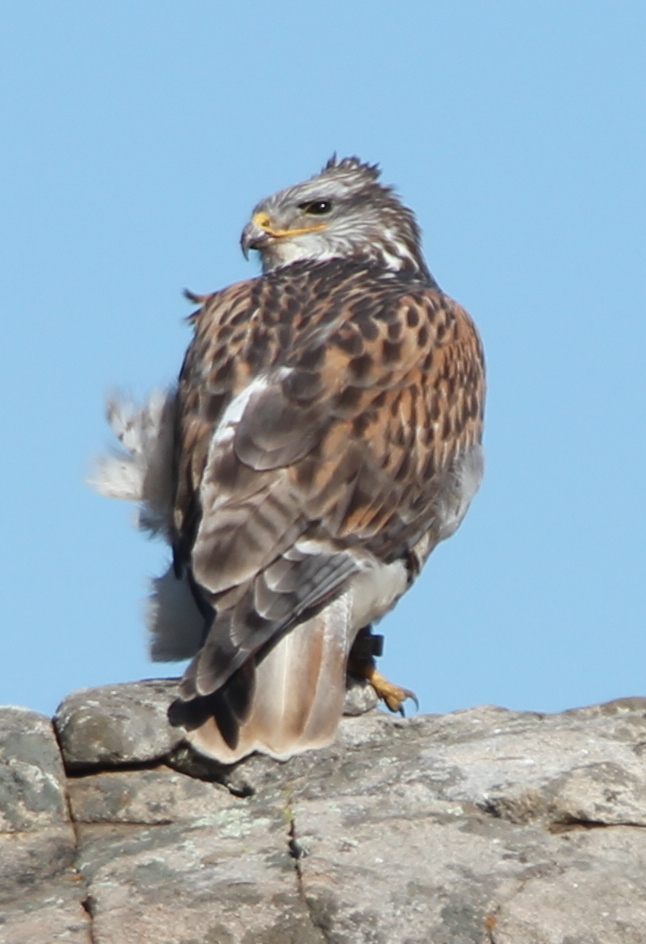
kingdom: Animalia
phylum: Chordata
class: Aves
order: Accipitriformes
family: Accipitridae
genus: Buteo
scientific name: Buteo regalis
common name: Ferruginous hawk
